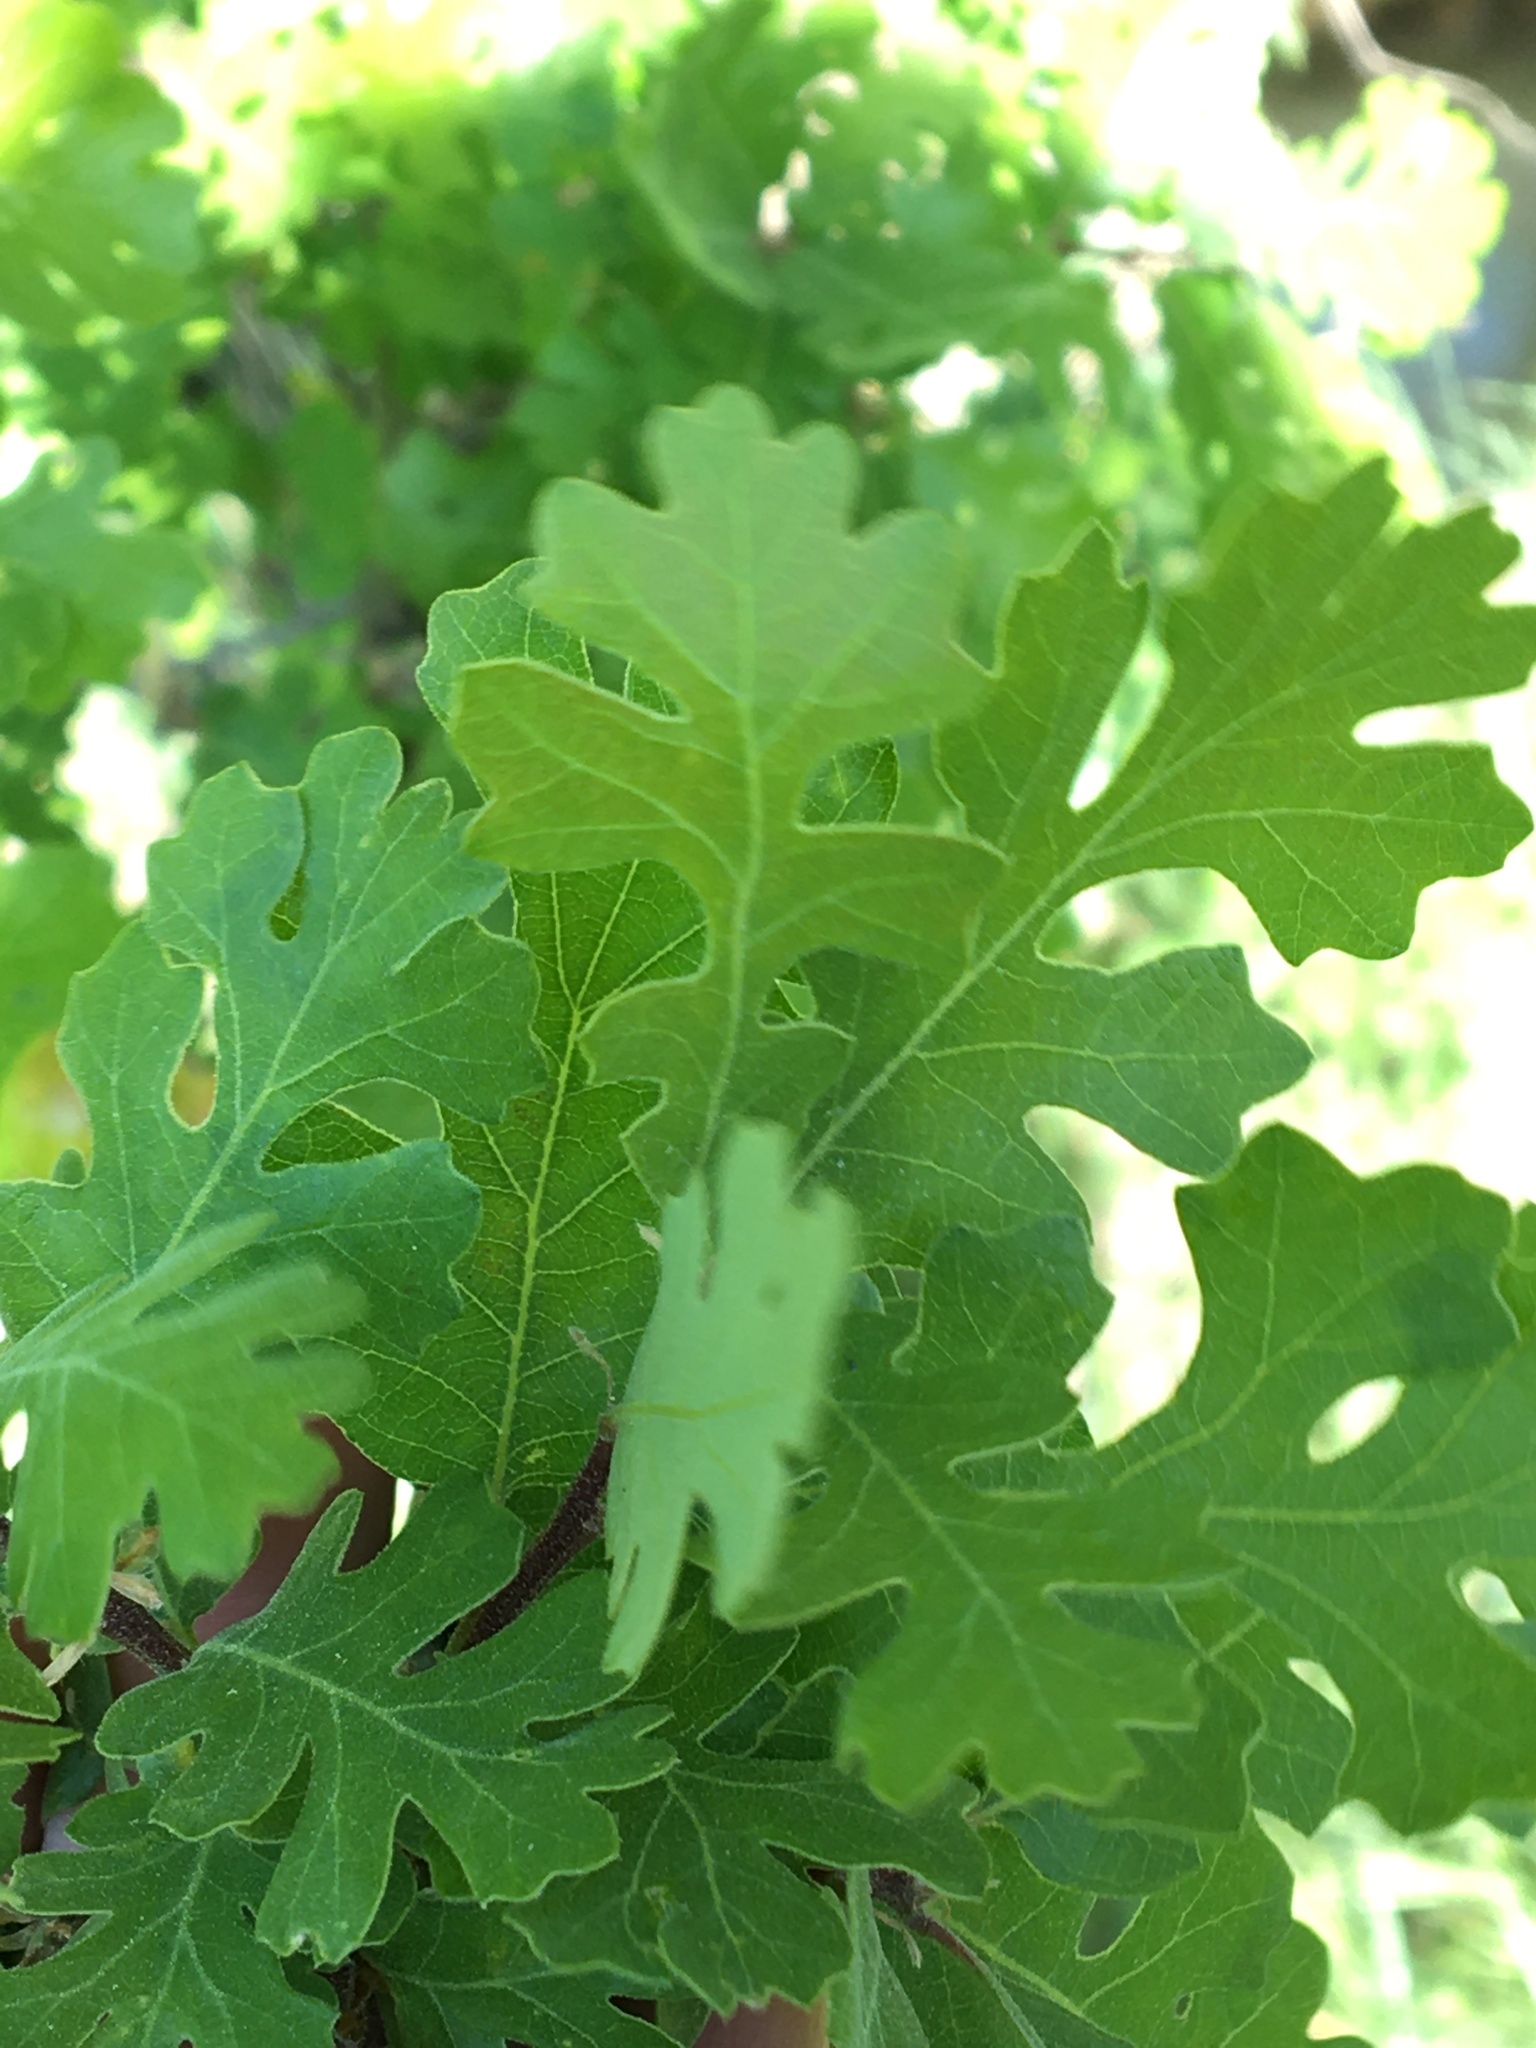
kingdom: Animalia
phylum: Arthropoda
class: Insecta
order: Hymenoptera
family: Cynipidae
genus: Andricus
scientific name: Andricus quercuscalifornicus
